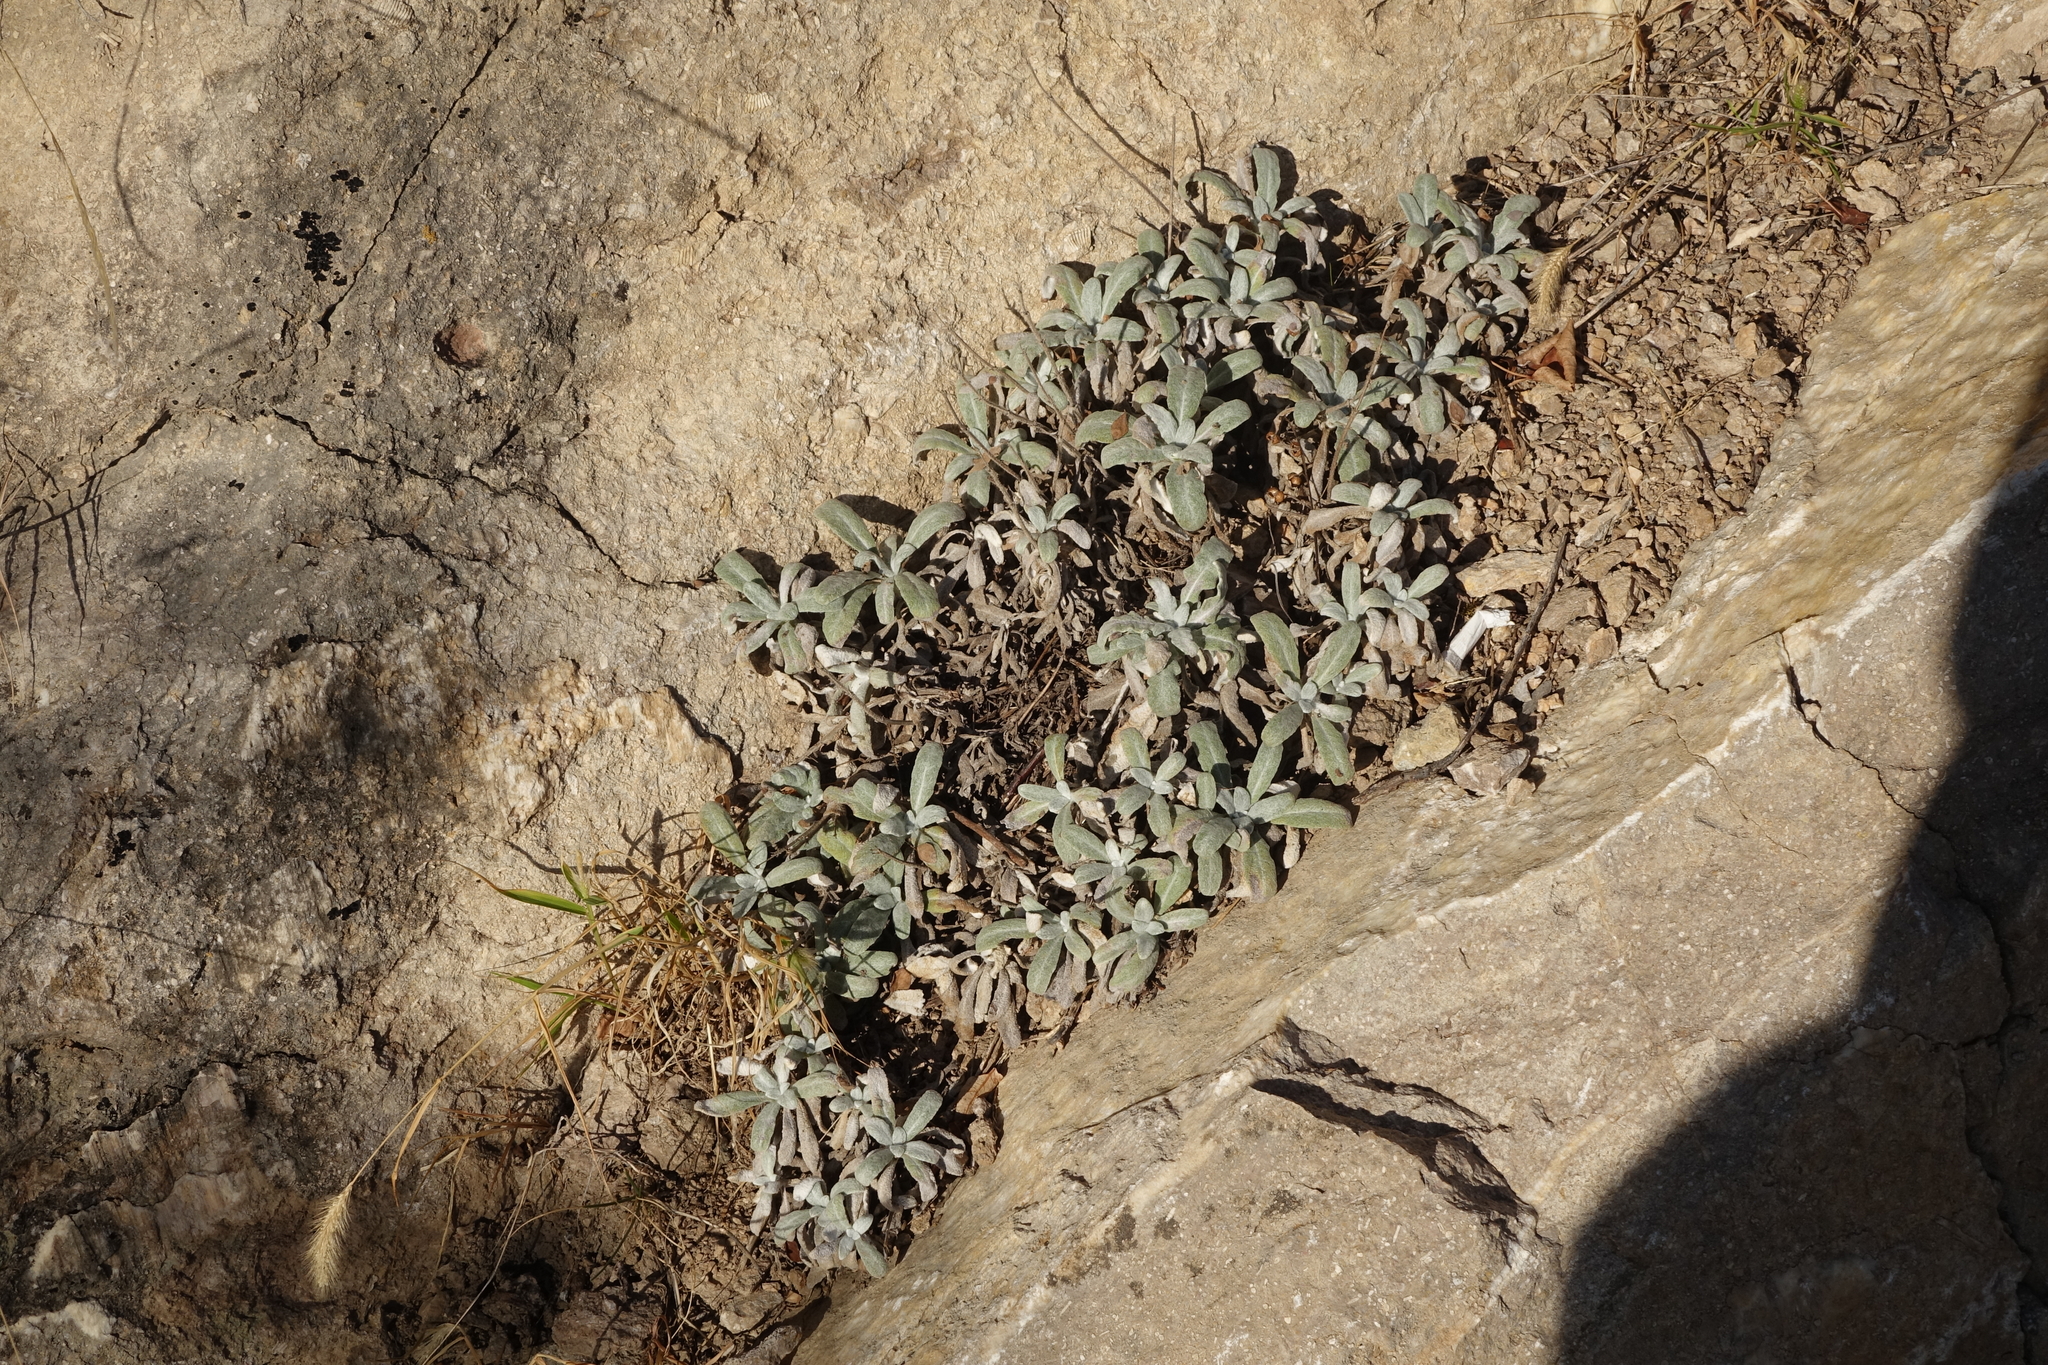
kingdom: Plantae
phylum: Tracheophyta
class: Magnoliopsida
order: Lamiales
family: Lamiaceae
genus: Salvia
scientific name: Salvia canescens
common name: Hoary salvia
